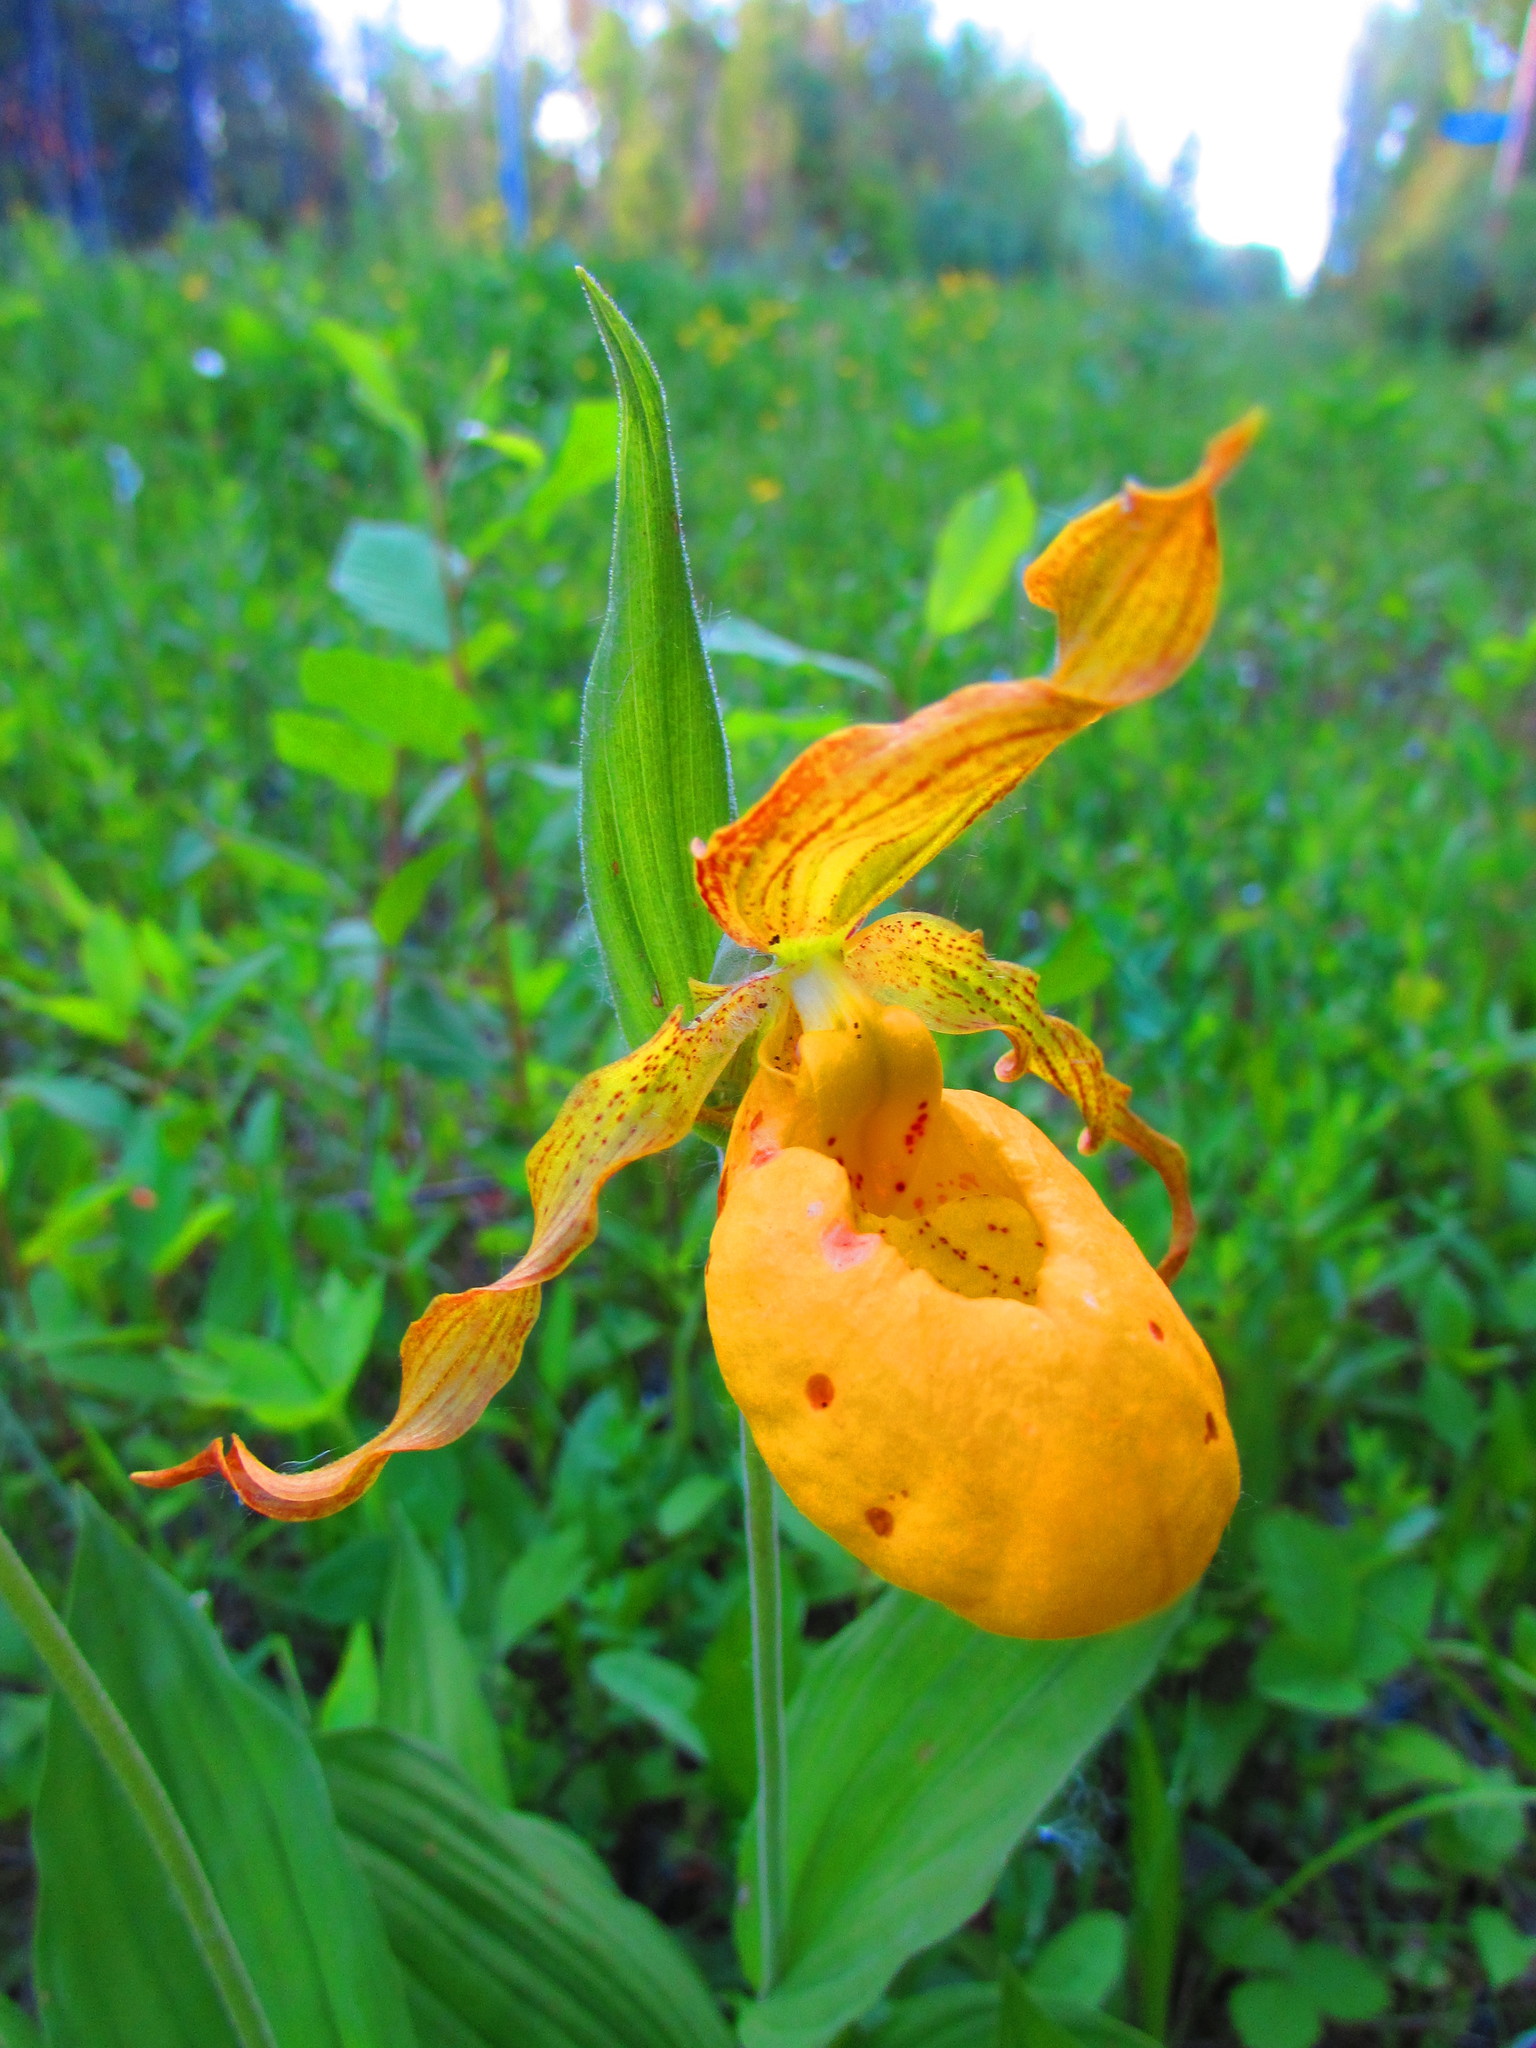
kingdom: Plantae
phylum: Tracheophyta
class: Liliopsida
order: Asparagales
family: Orchidaceae
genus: Cypripedium
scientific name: Cypripedium parviflorum
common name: American yellow lady's-slipper
